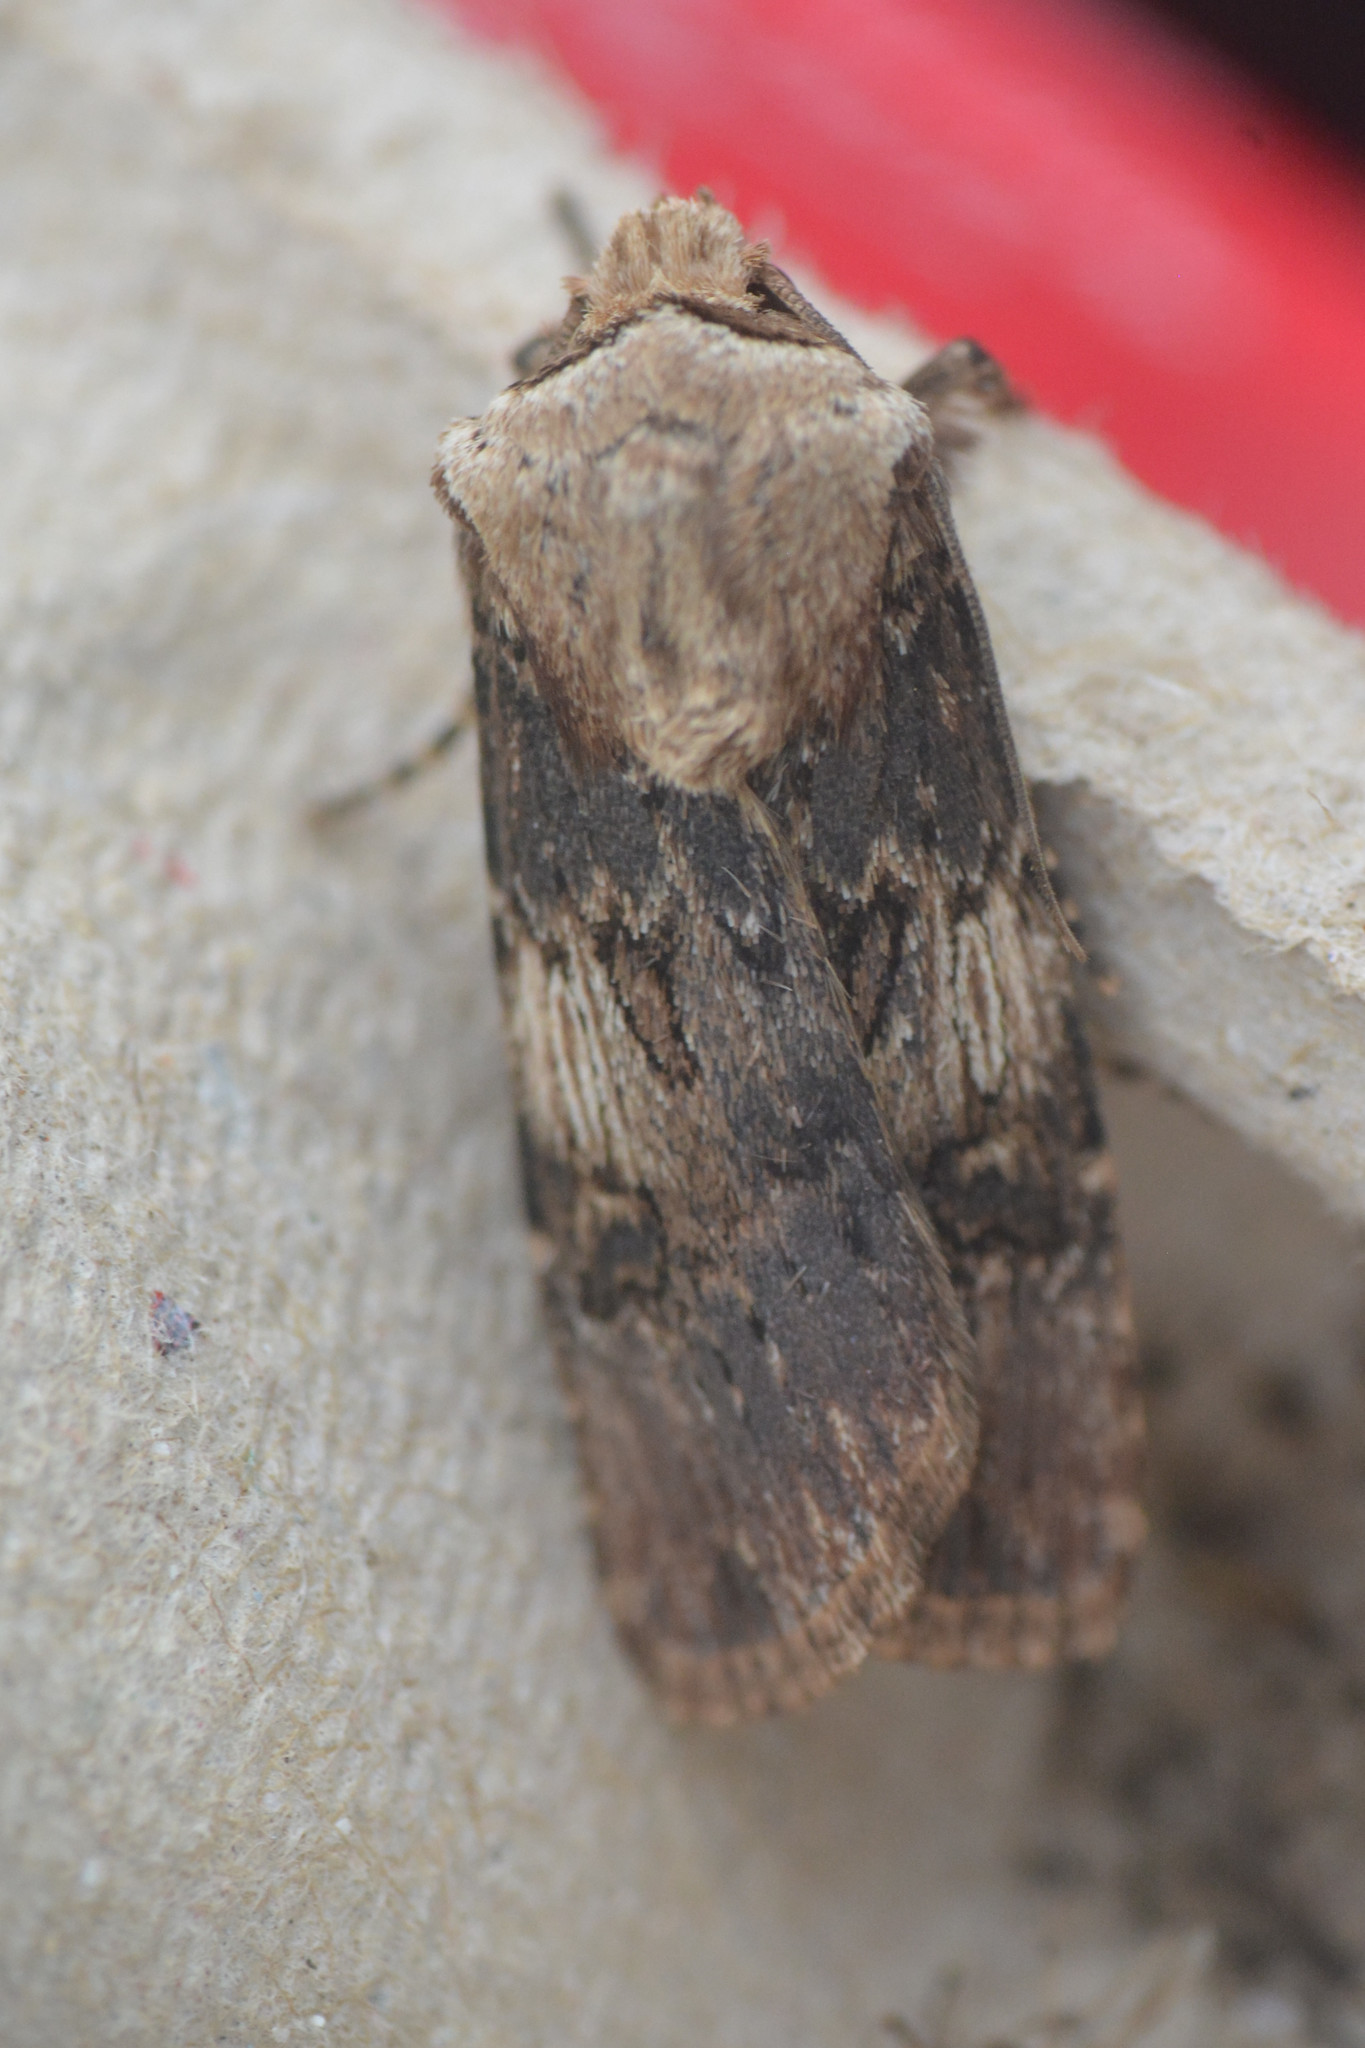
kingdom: Animalia
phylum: Arthropoda
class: Insecta
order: Lepidoptera
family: Noctuidae
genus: Agrotis
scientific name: Agrotis puta
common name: Shuttle-shaped dart
